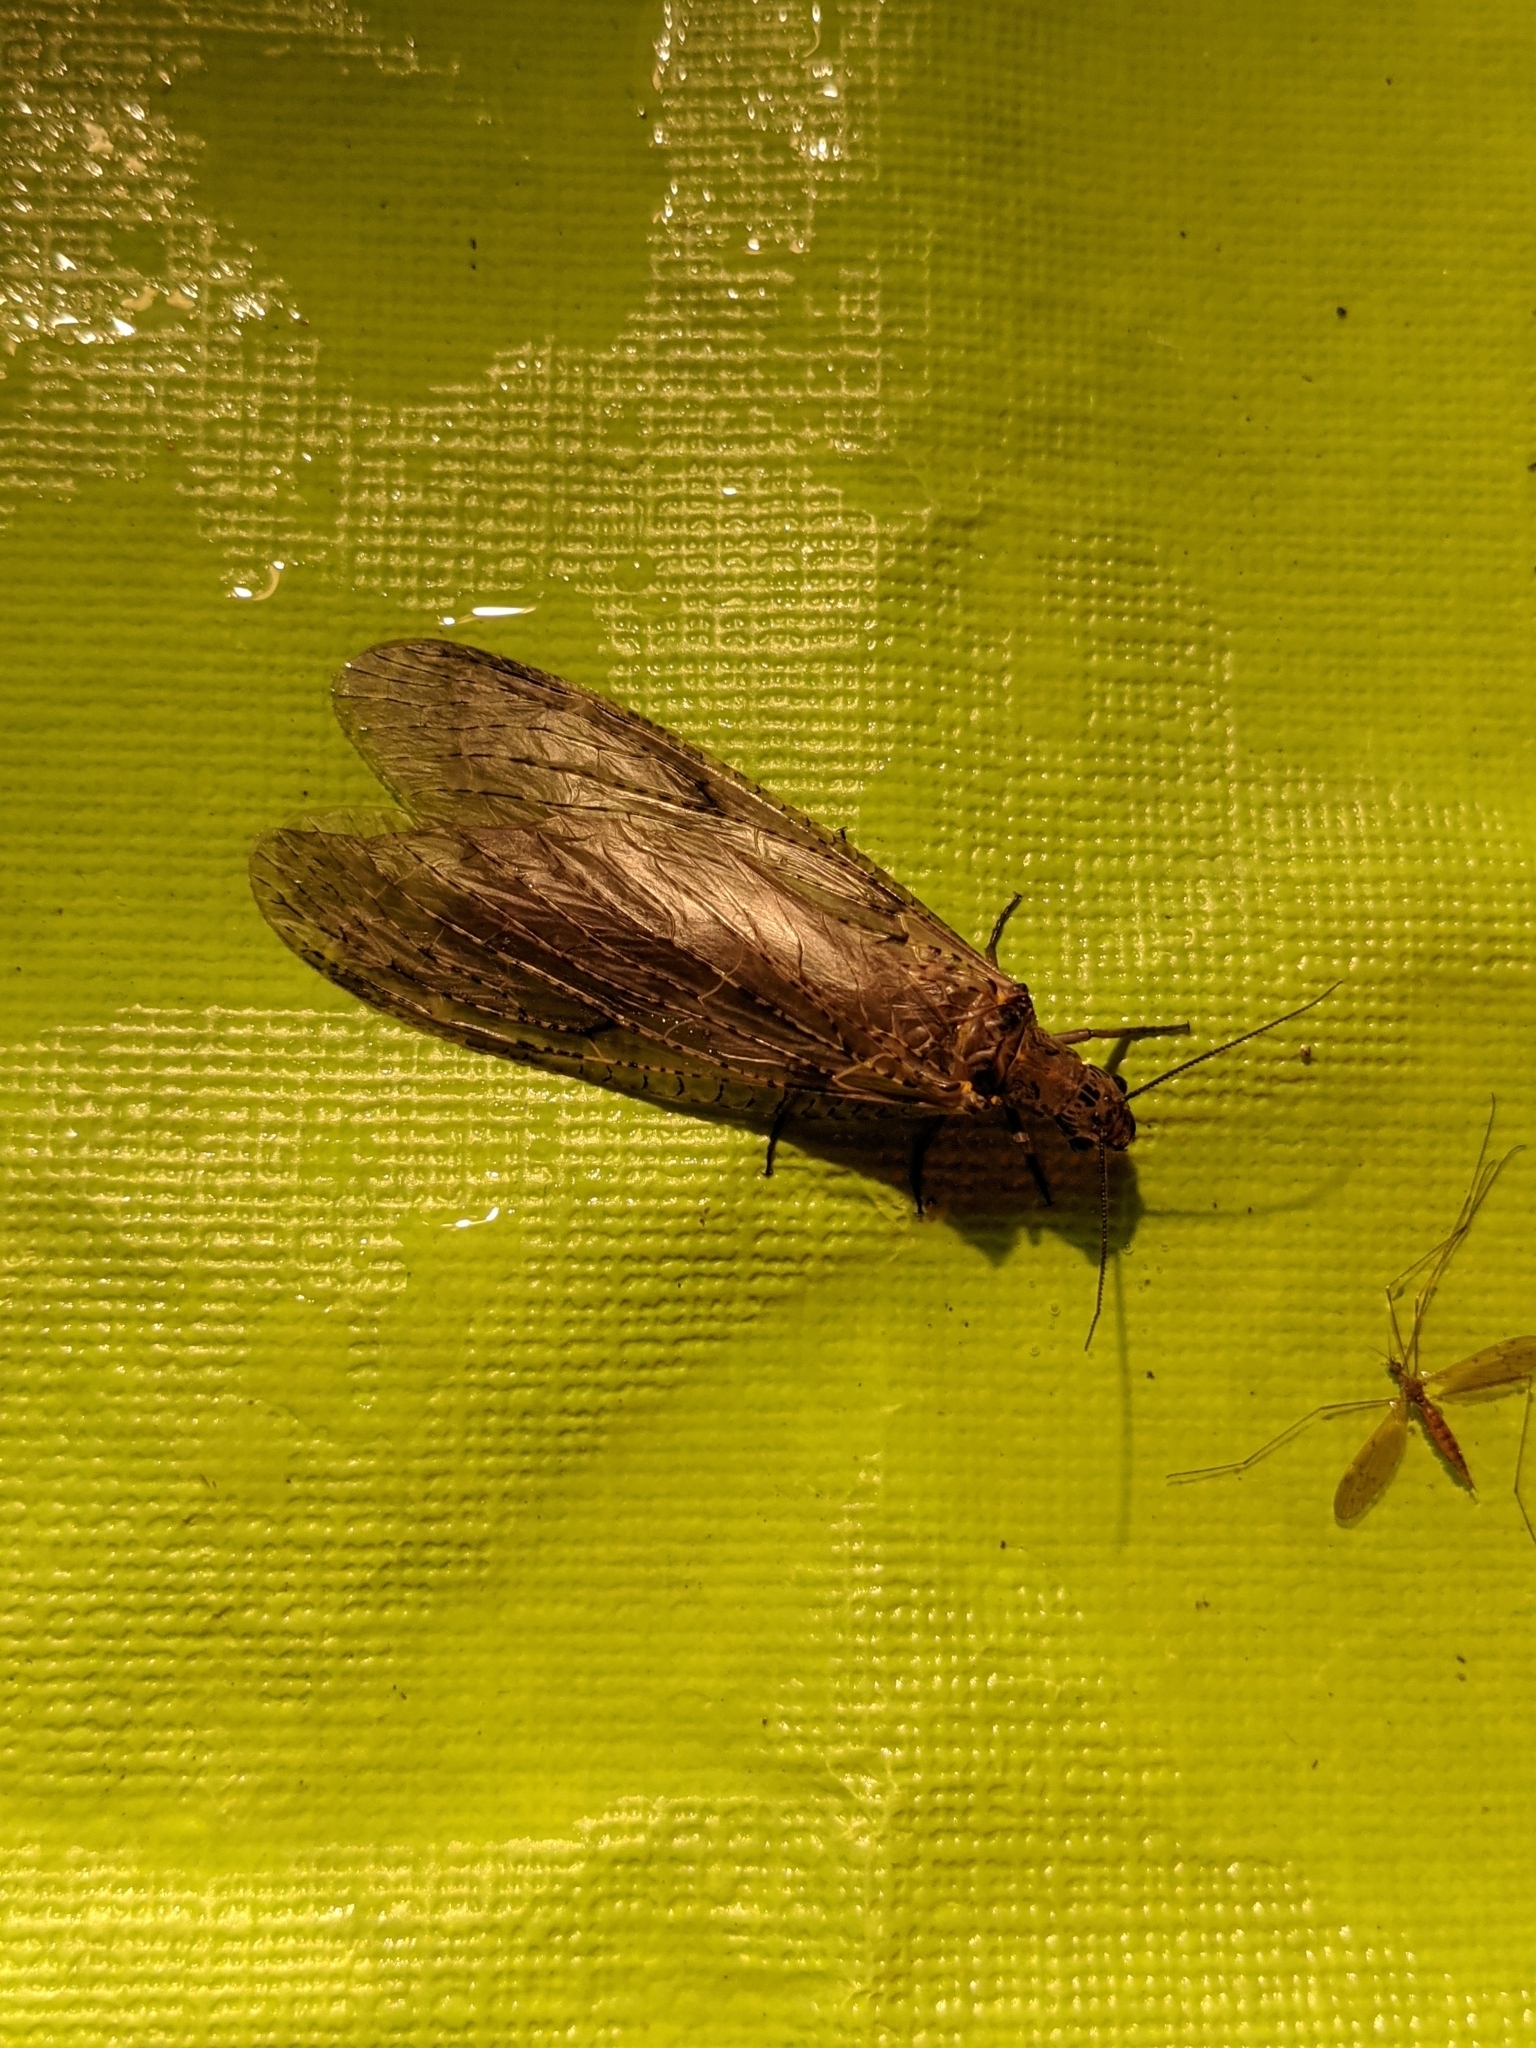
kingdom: Animalia
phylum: Arthropoda
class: Insecta
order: Megaloptera
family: Corydalidae
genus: Chauliodes
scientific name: Chauliodes rastricornis
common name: Spring fishfly
